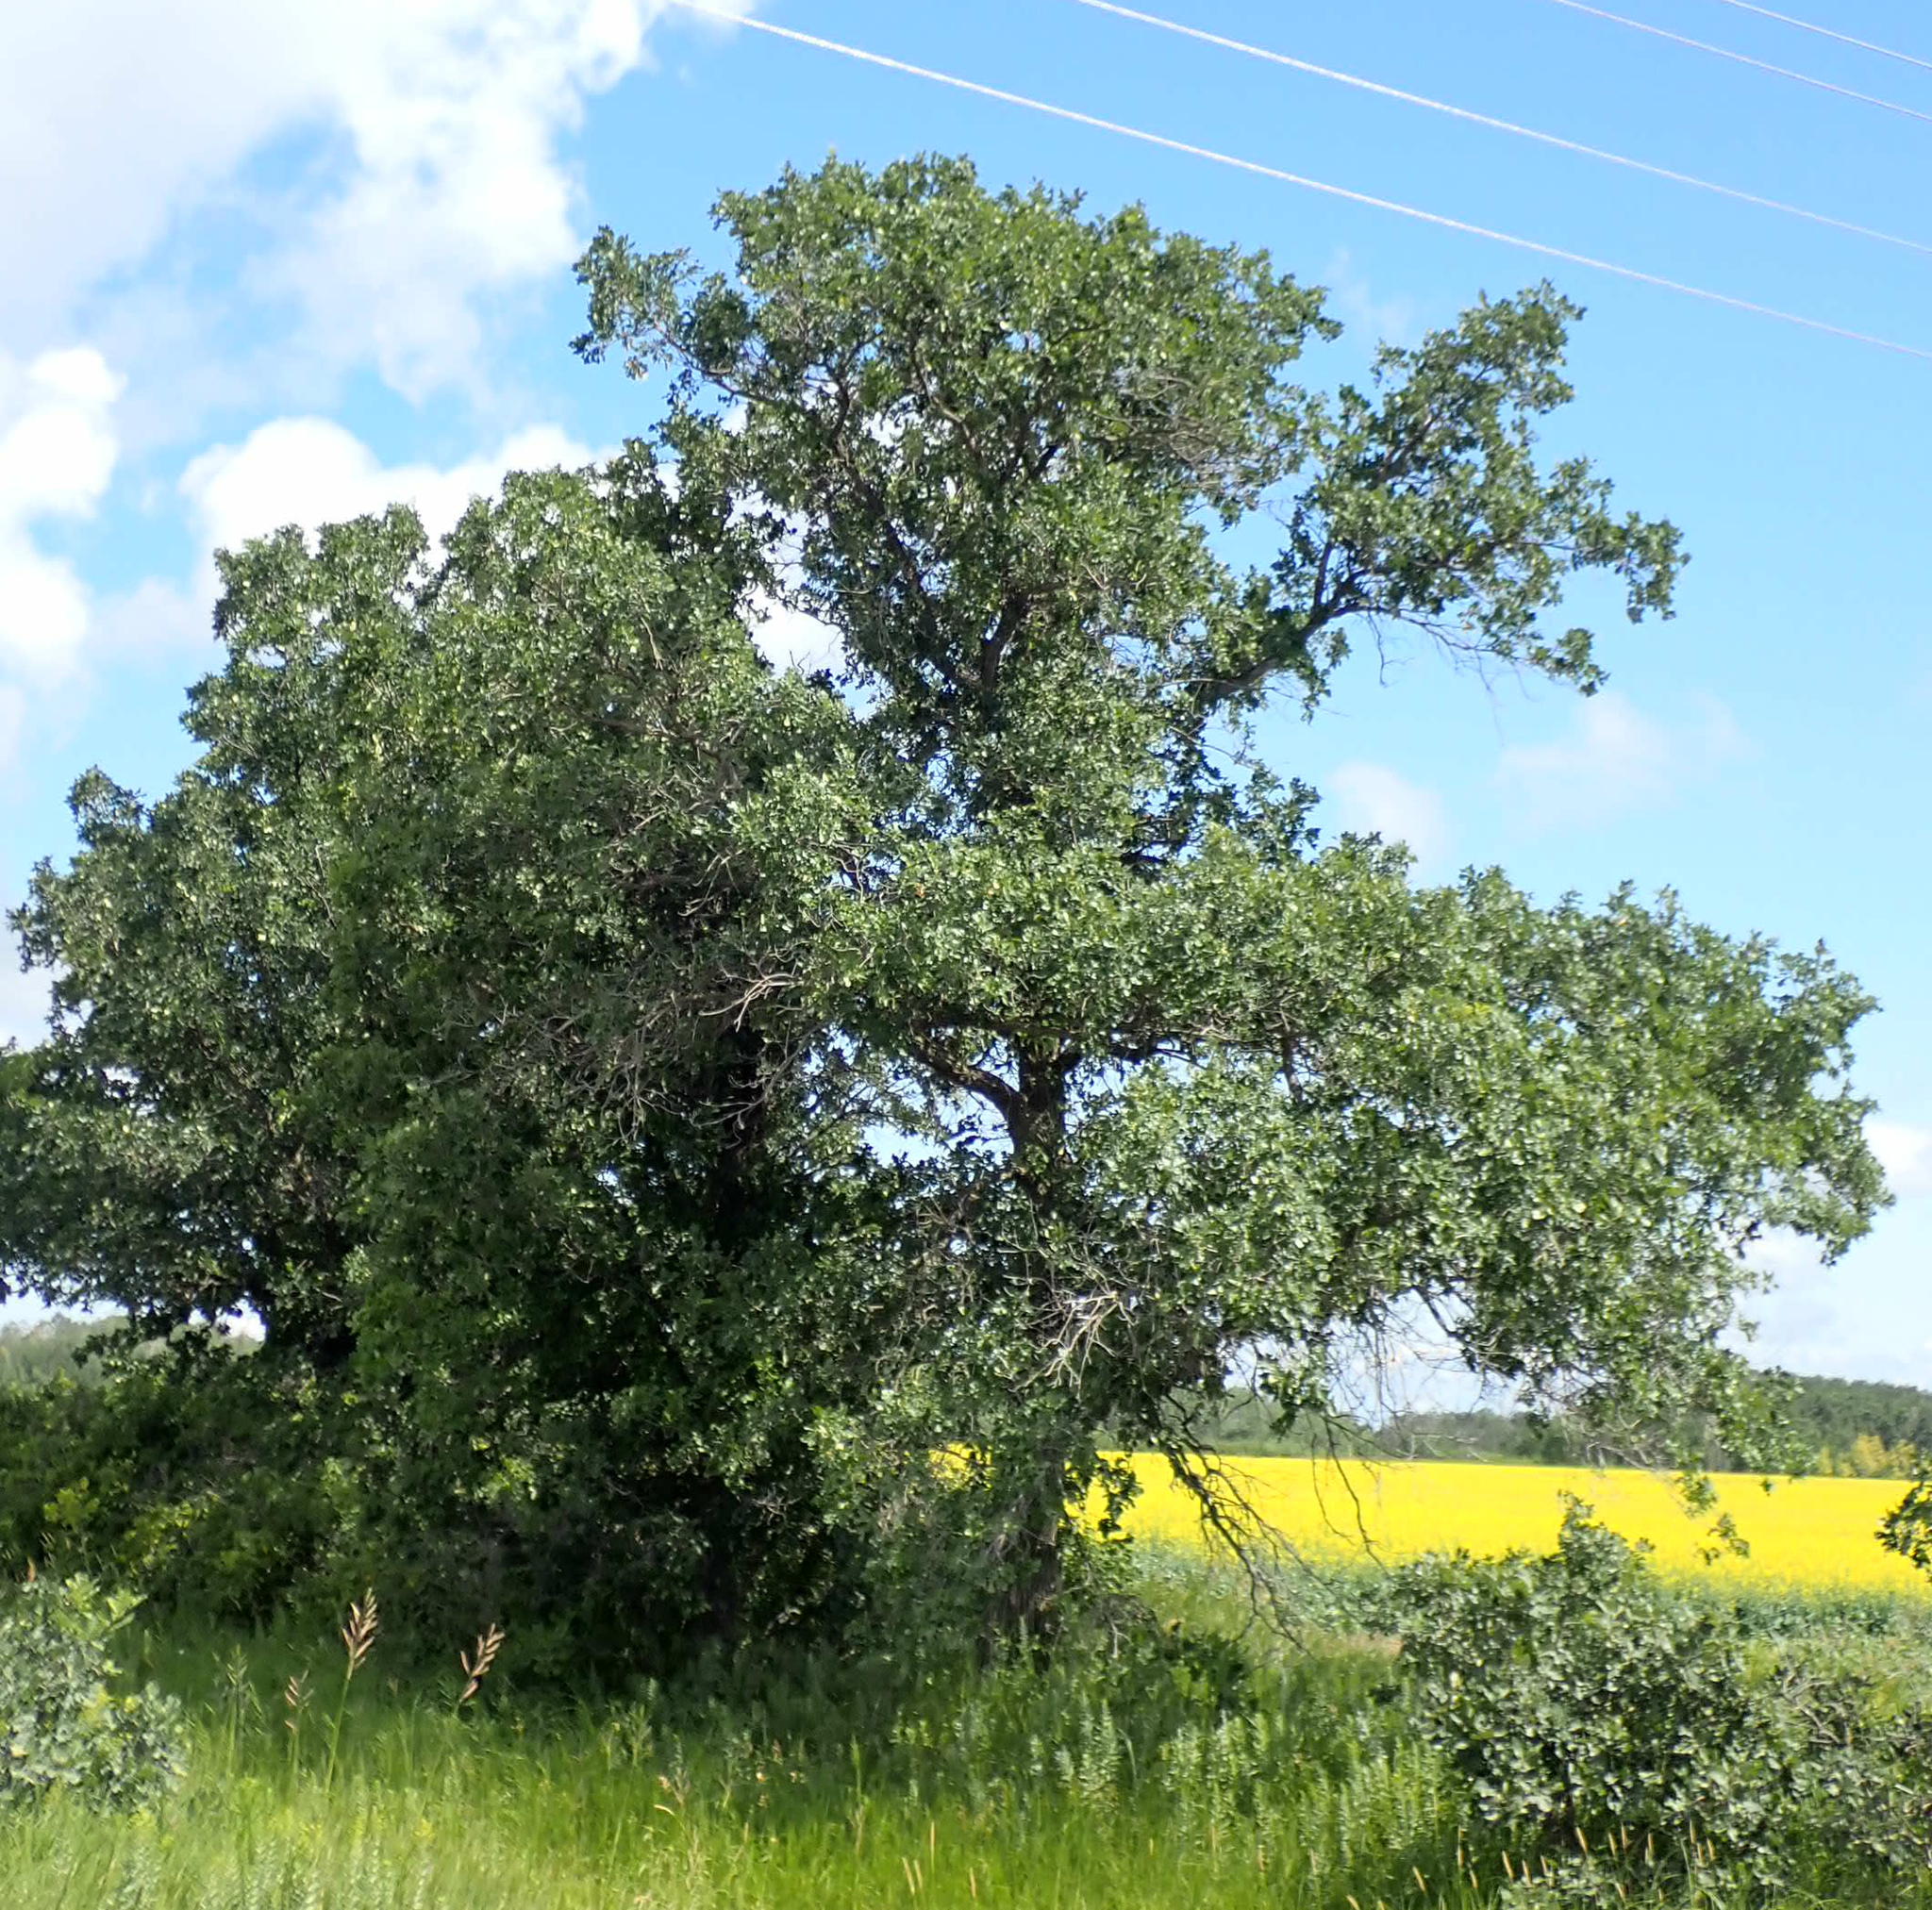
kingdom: Plantae
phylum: Tracheophyta
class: Magnoliopsida
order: Fagales
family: Fagaceae
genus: Quercus
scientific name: Quercus macrocarpa
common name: Bur oak
